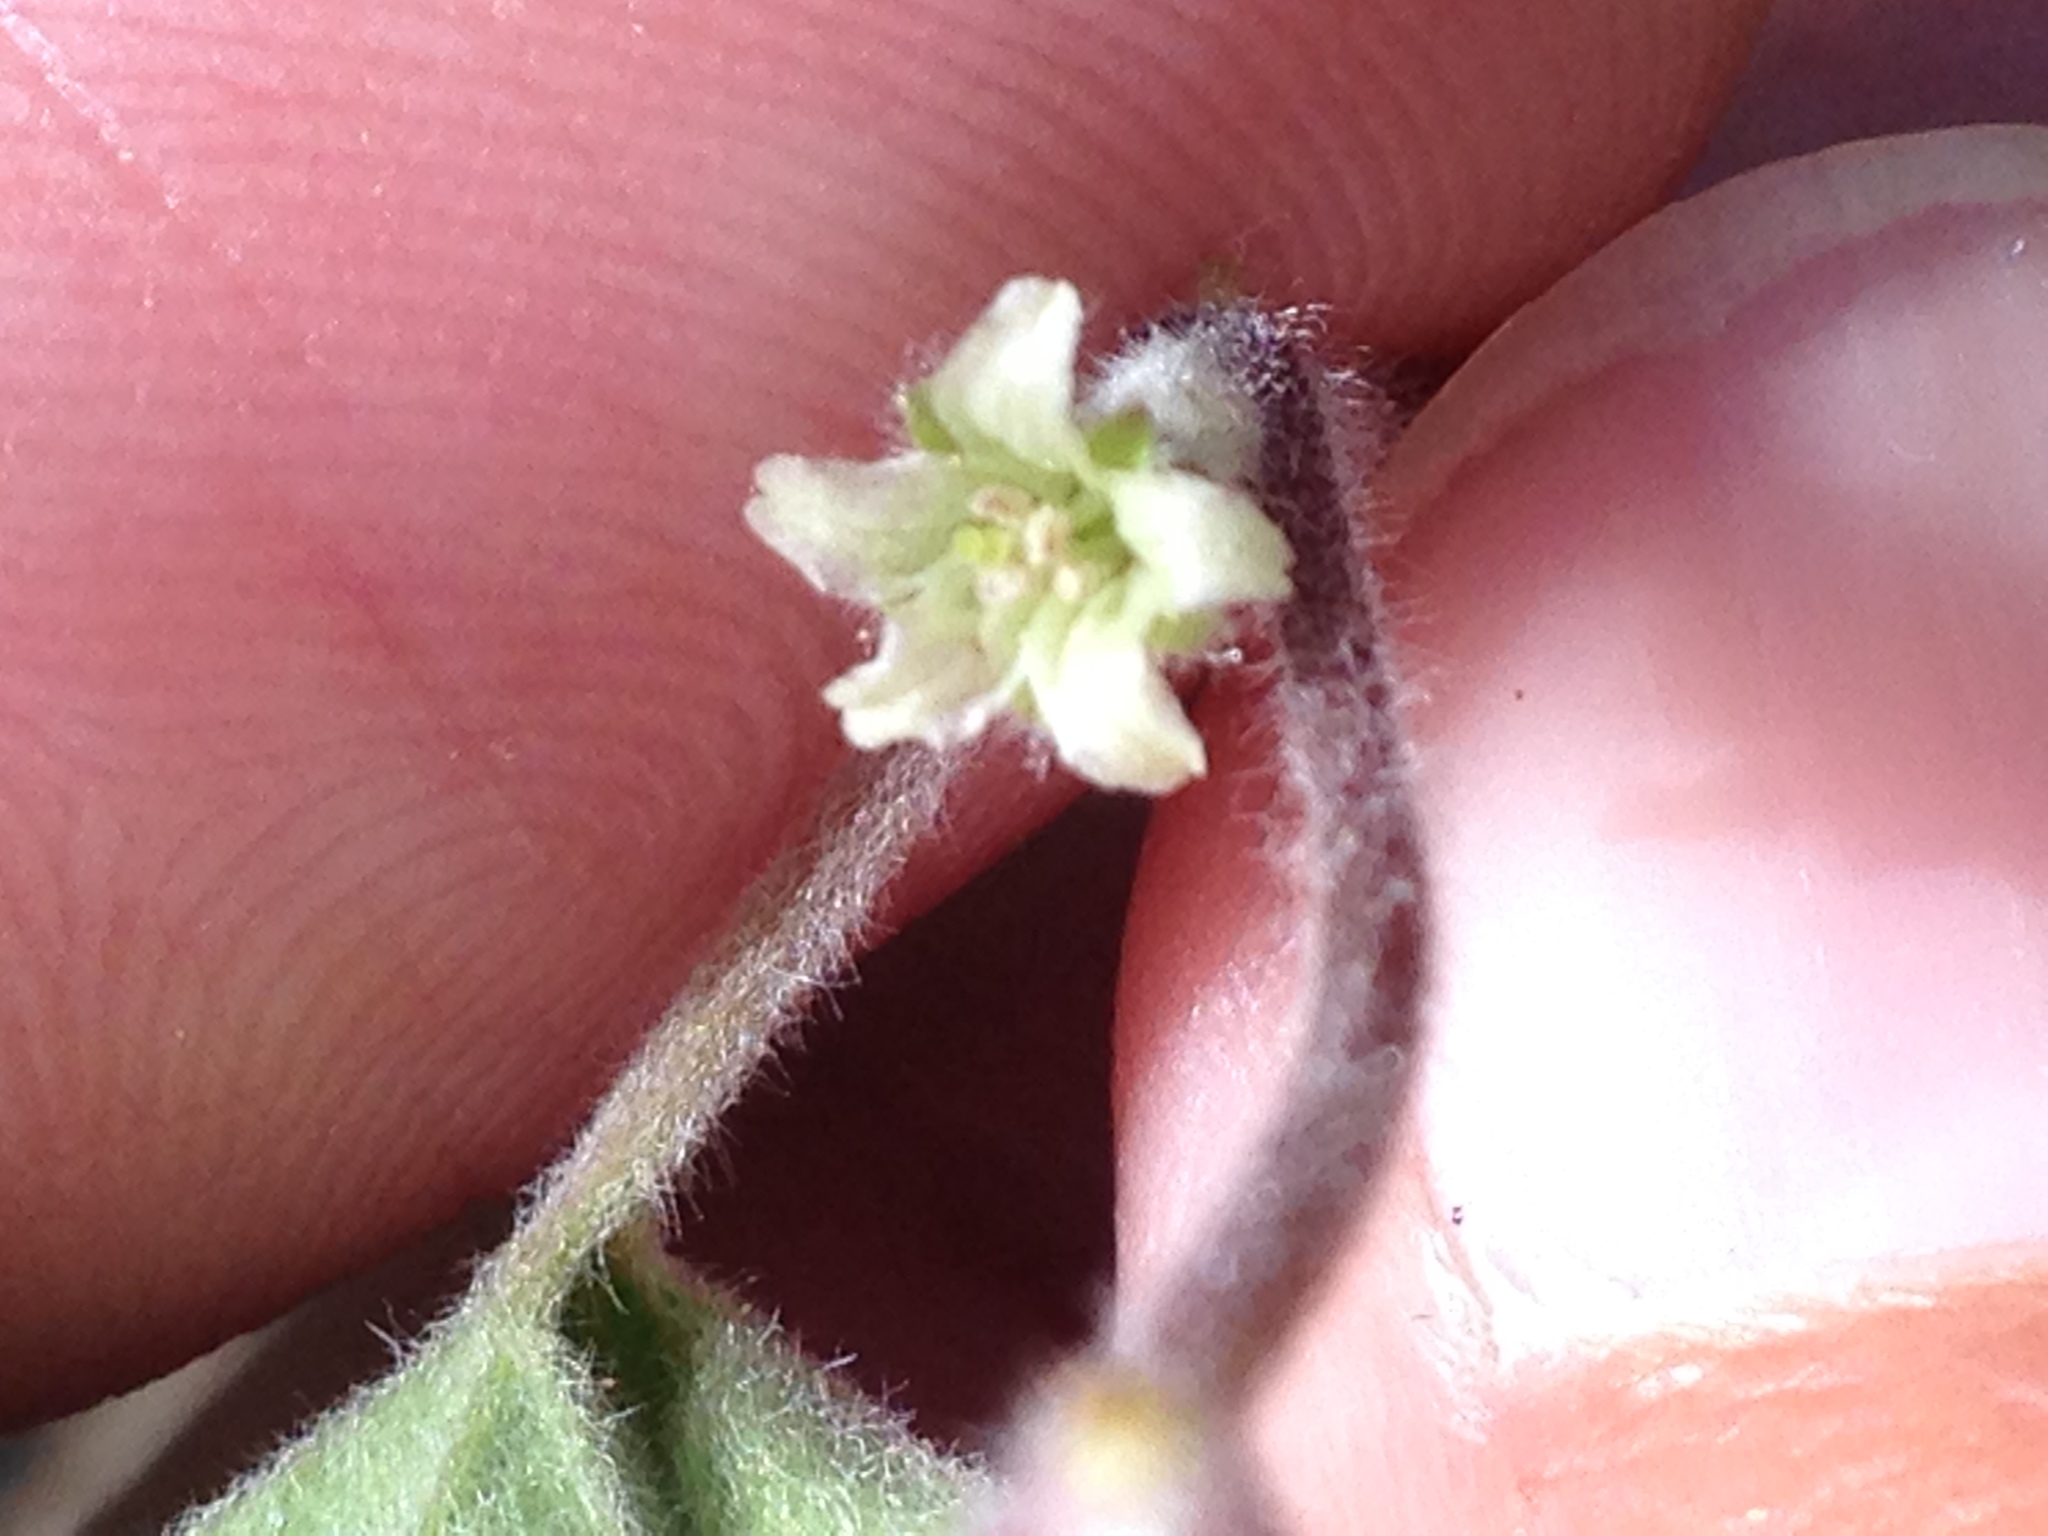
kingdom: Plantae
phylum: Tracheophyta
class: Magnoliopsida
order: Solanales
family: Convolvulaceae
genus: Dichondra
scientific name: Dichondra brachypoda
